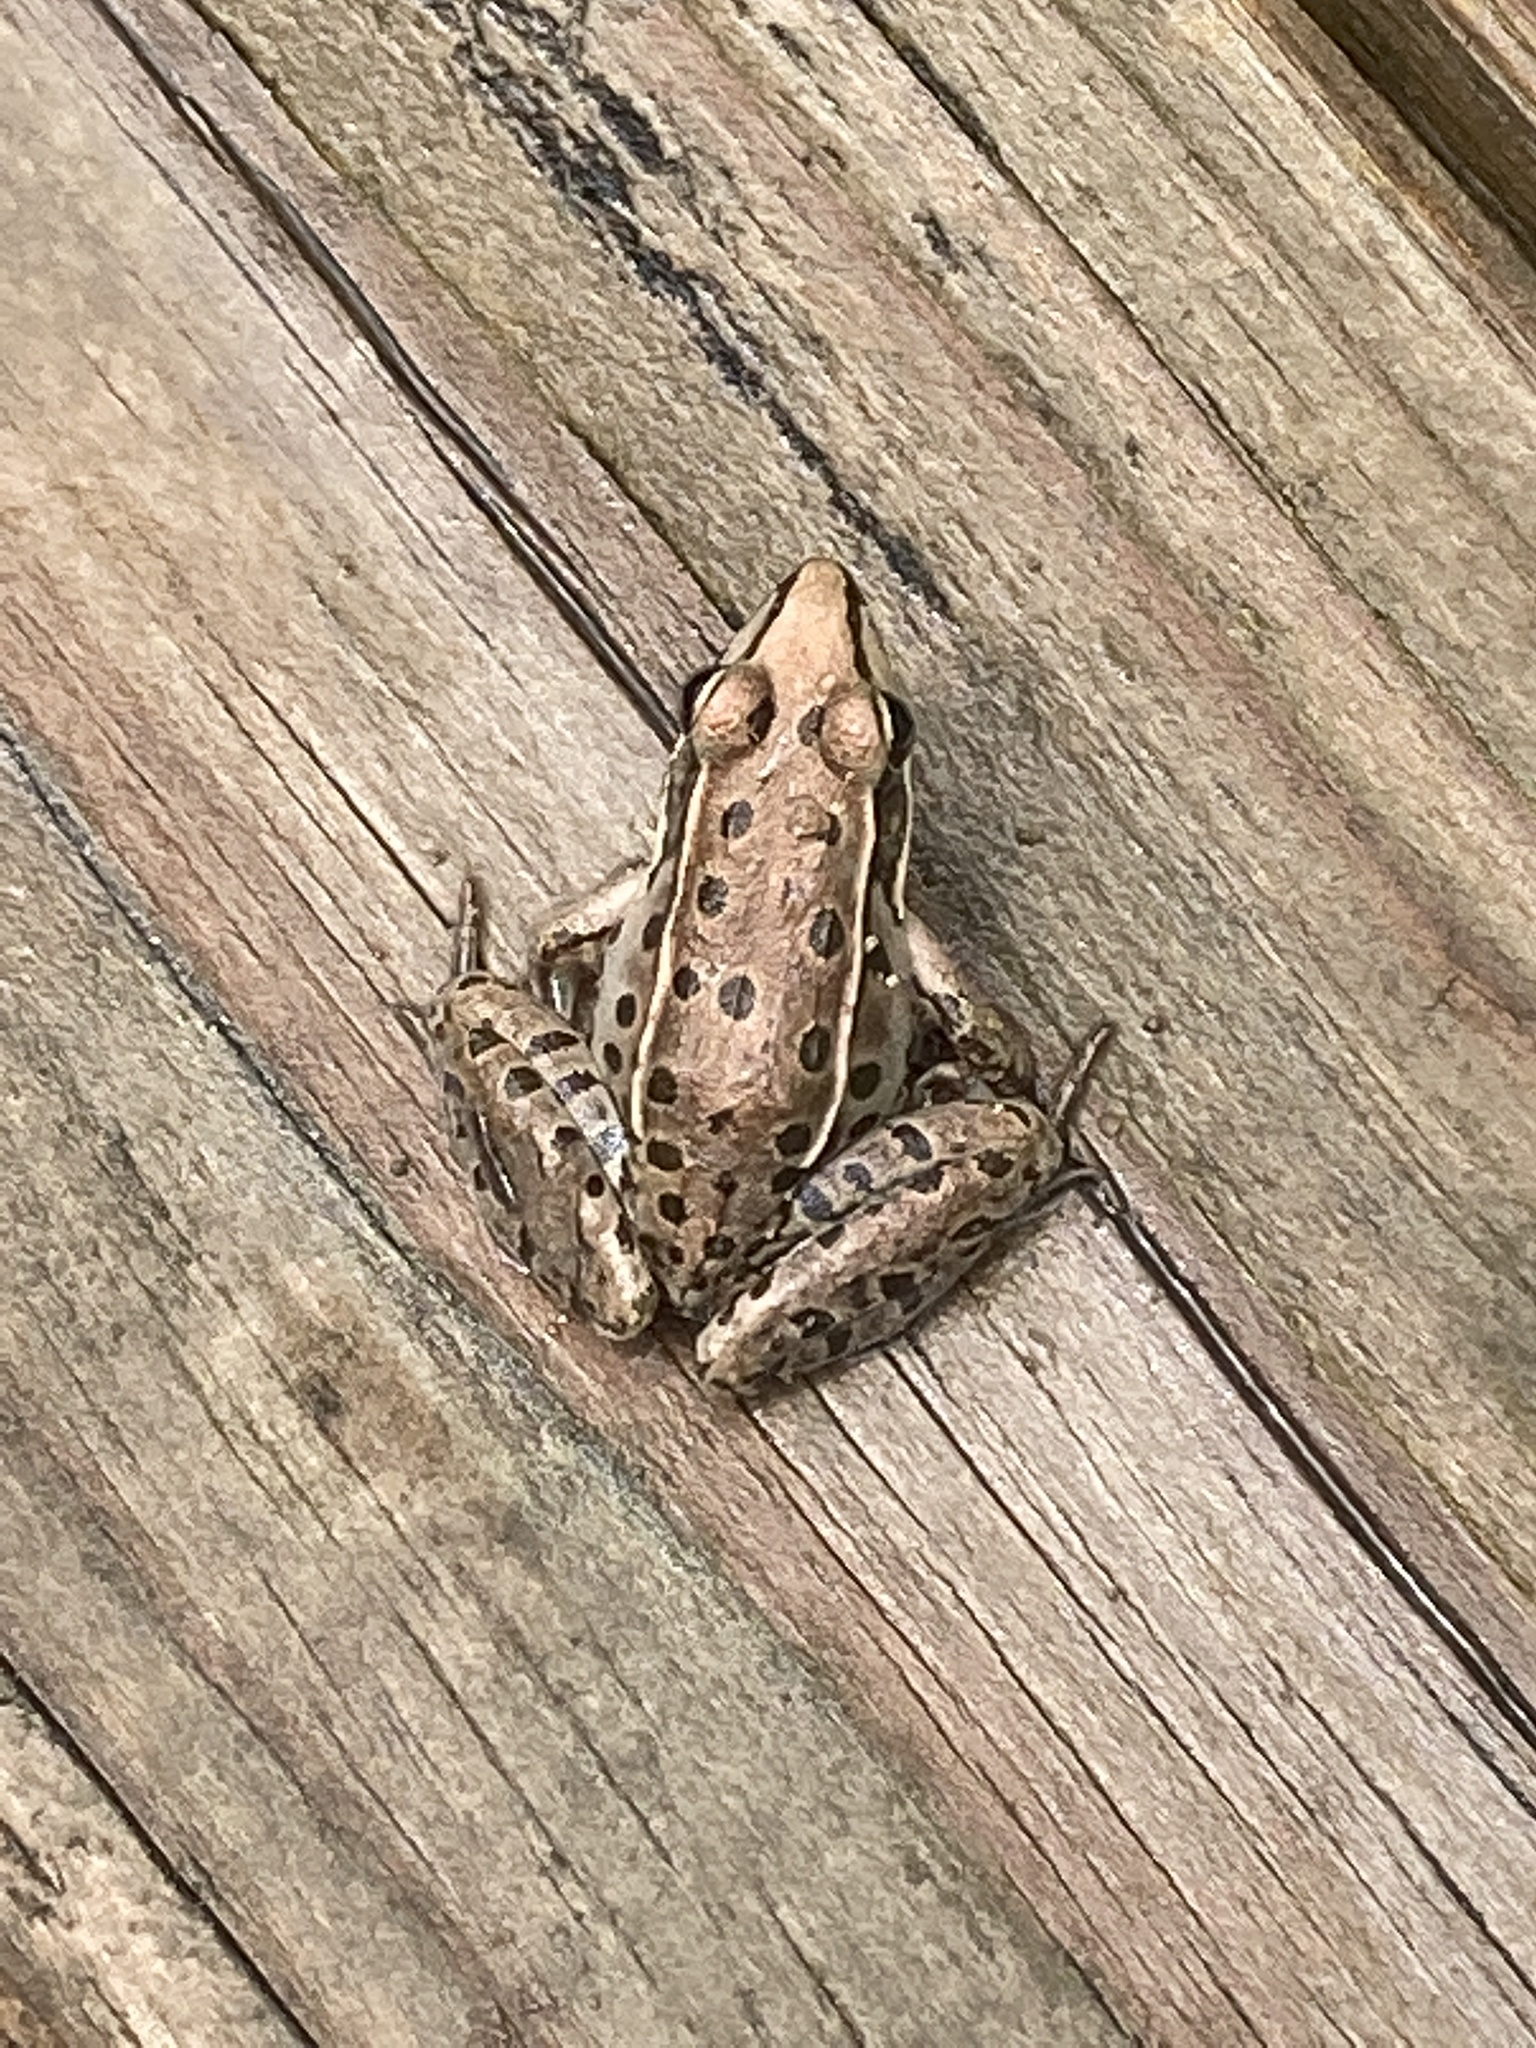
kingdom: Animalia
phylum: Chordata
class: Amphibia
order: Anura
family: Ranidae
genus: Lithobates
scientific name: Lithobates sphenocephalus
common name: Southern leopard frog
